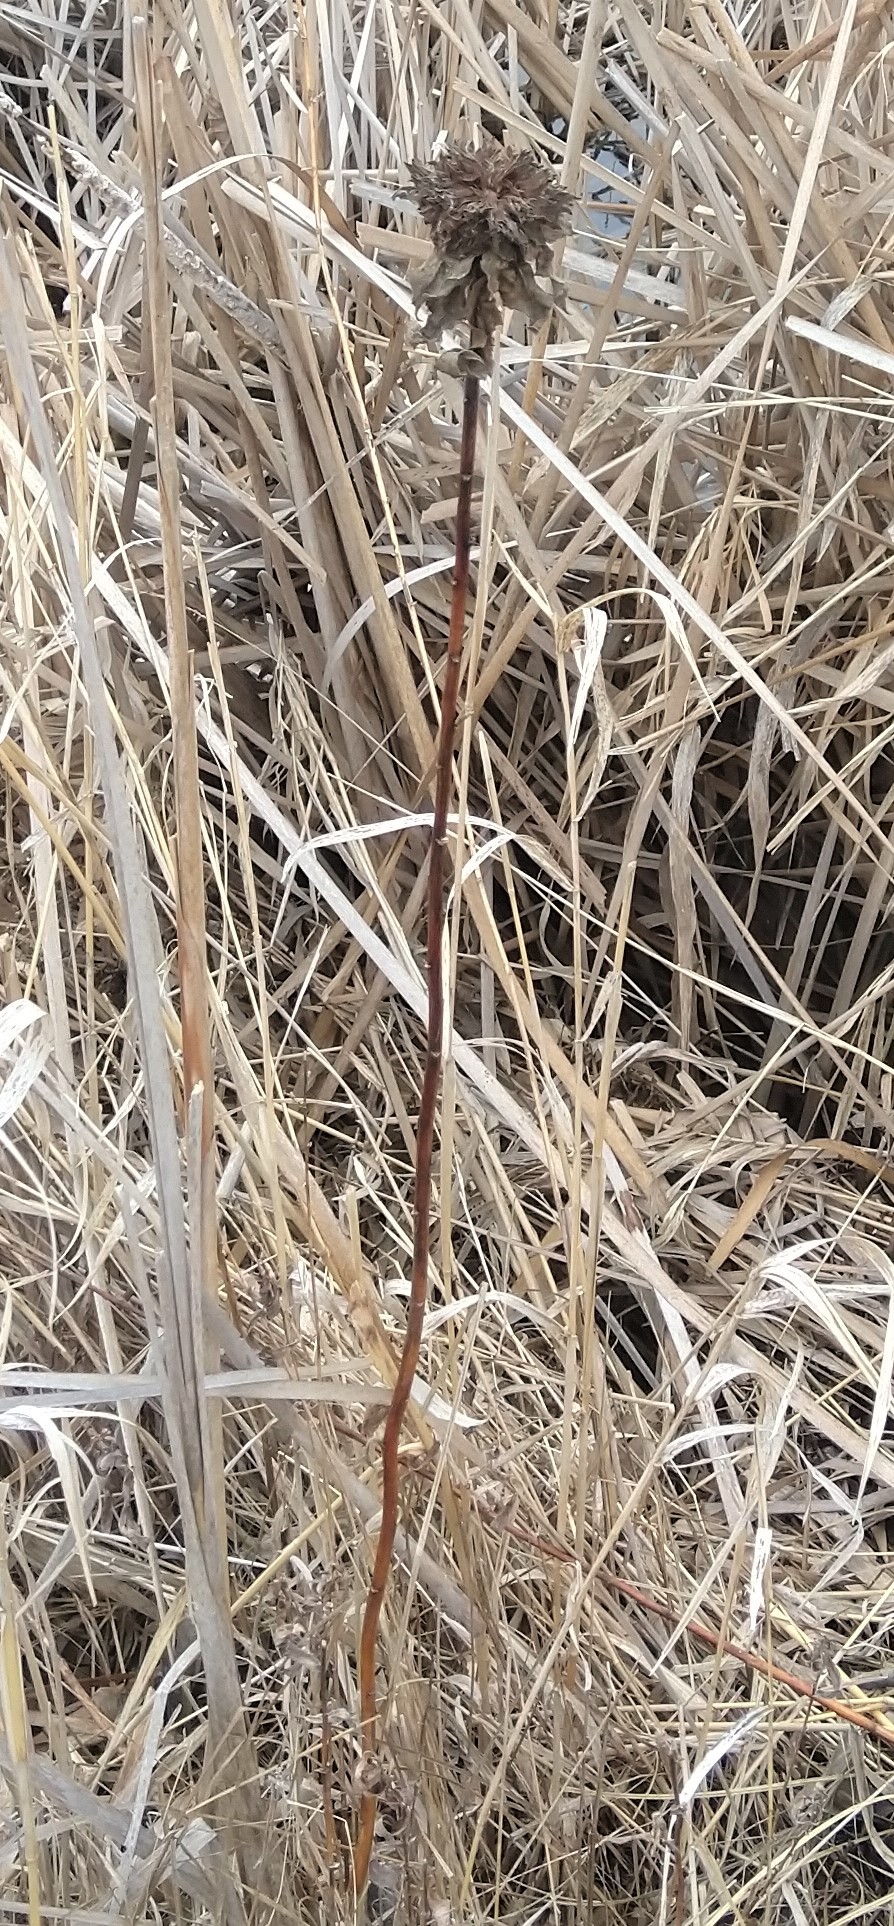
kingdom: Animalia
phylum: Arthropoda
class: Insecta
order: Diptera
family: Cecidomyiidae
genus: Rhopalomyia
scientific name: Rhopalomyia solidaginis
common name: Goldenrod bunch gall midge
